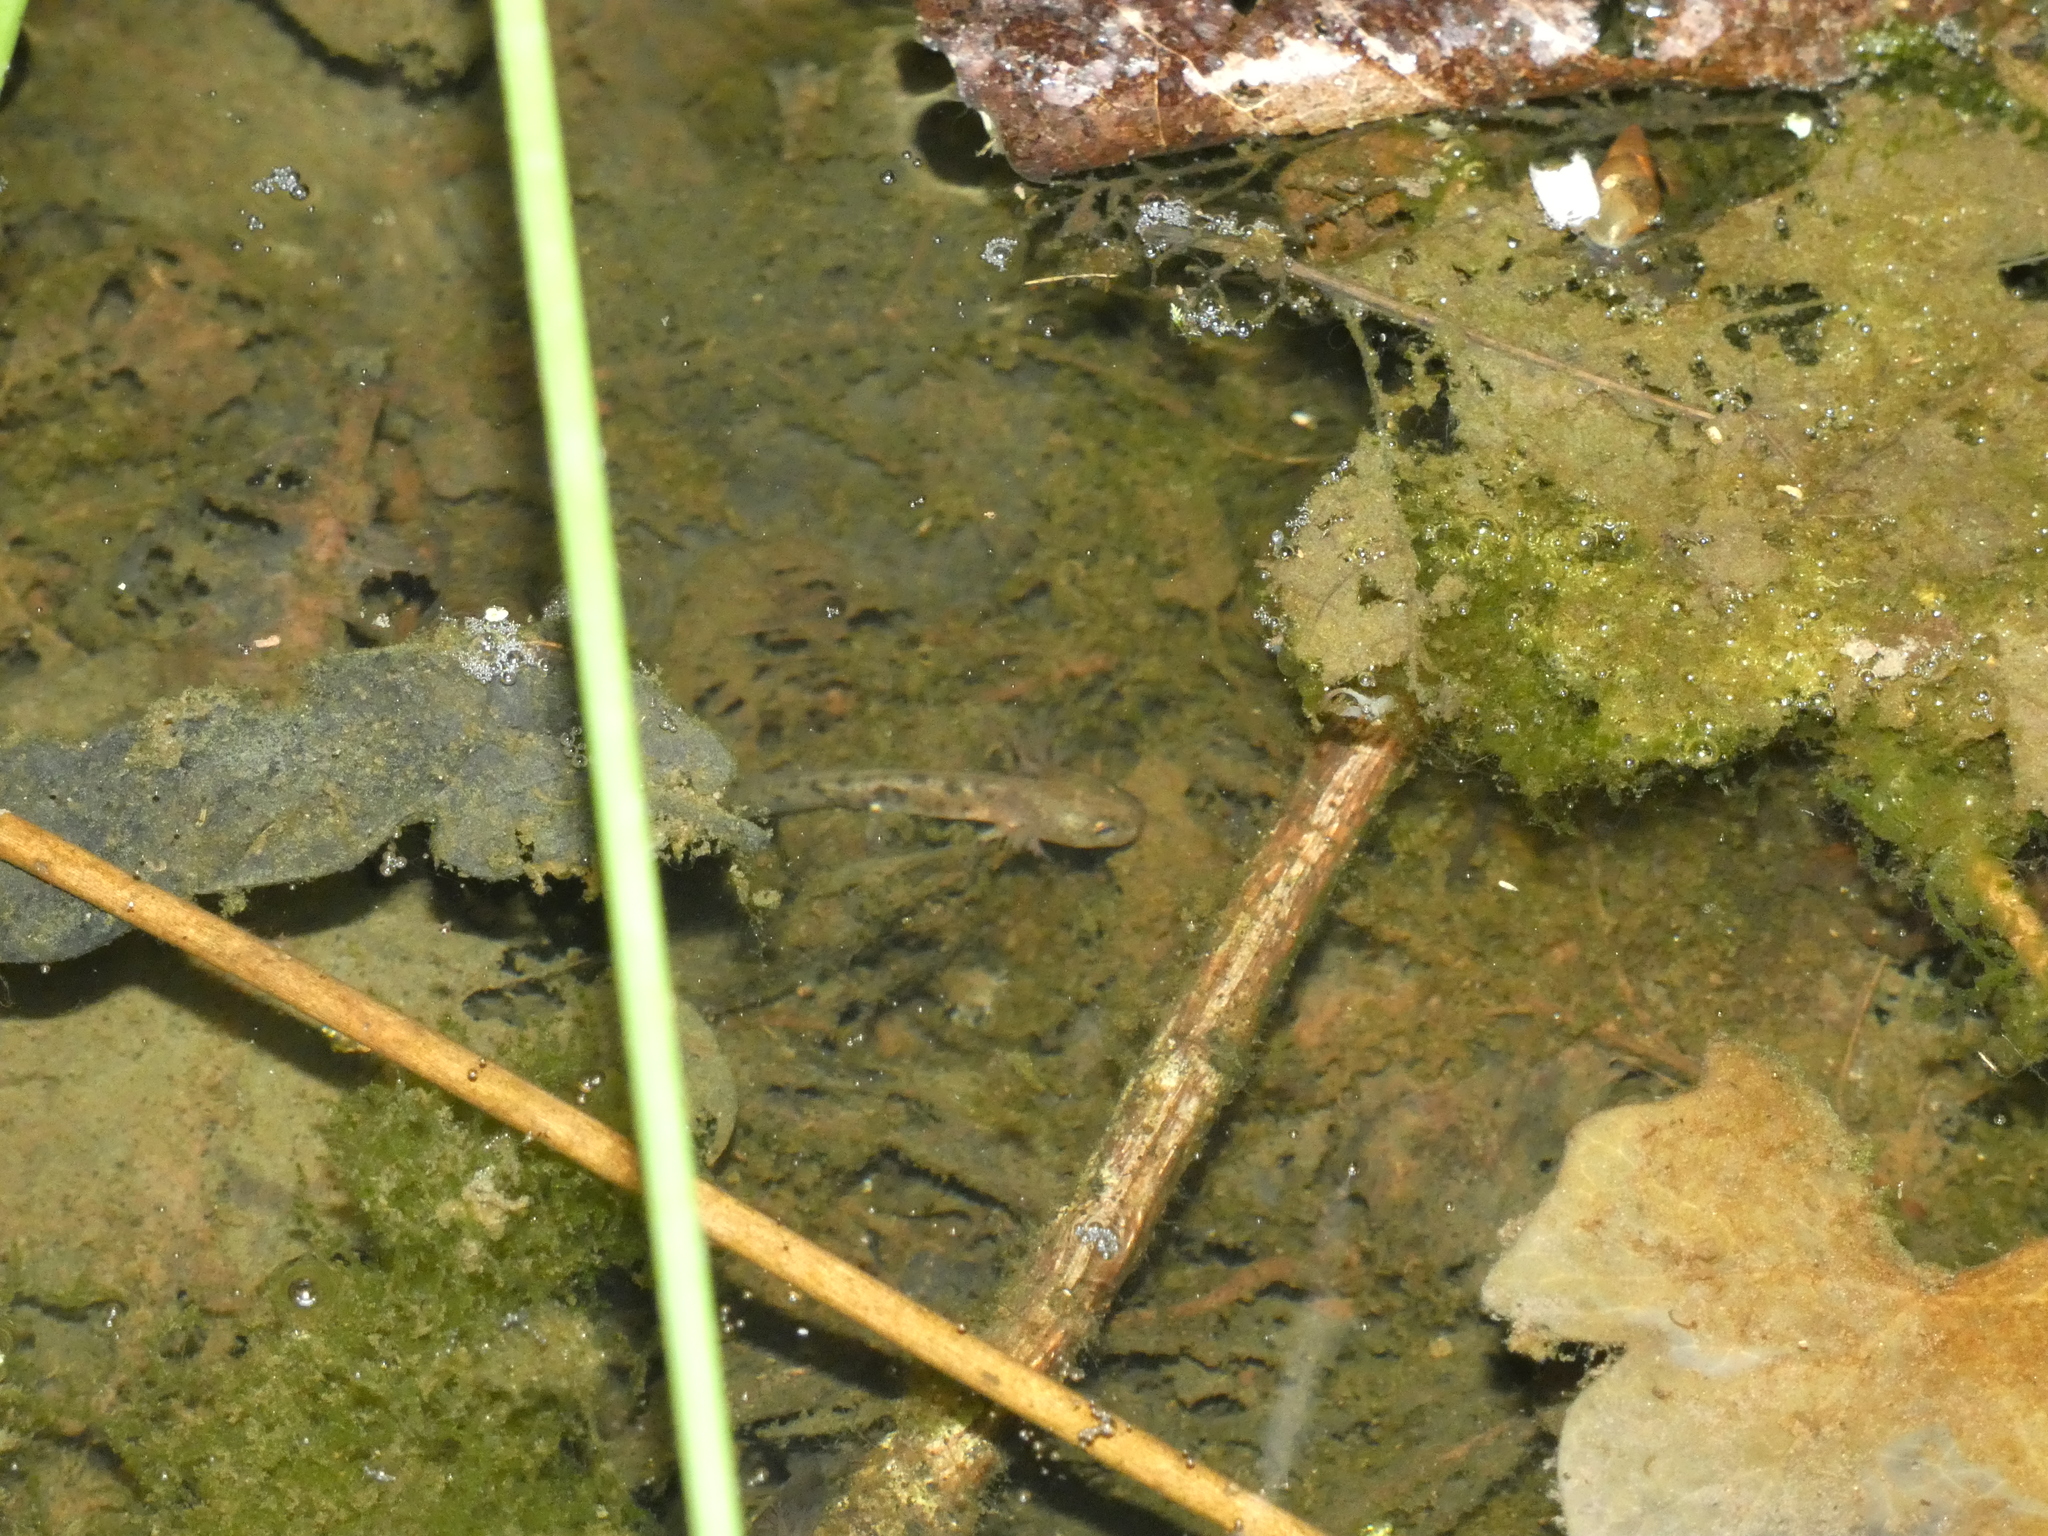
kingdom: Animalia
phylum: Chordata
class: Amphibia
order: Caudata
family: Salamandridae
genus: Salamandra
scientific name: Salamandra salamandra
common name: Fire salamander
